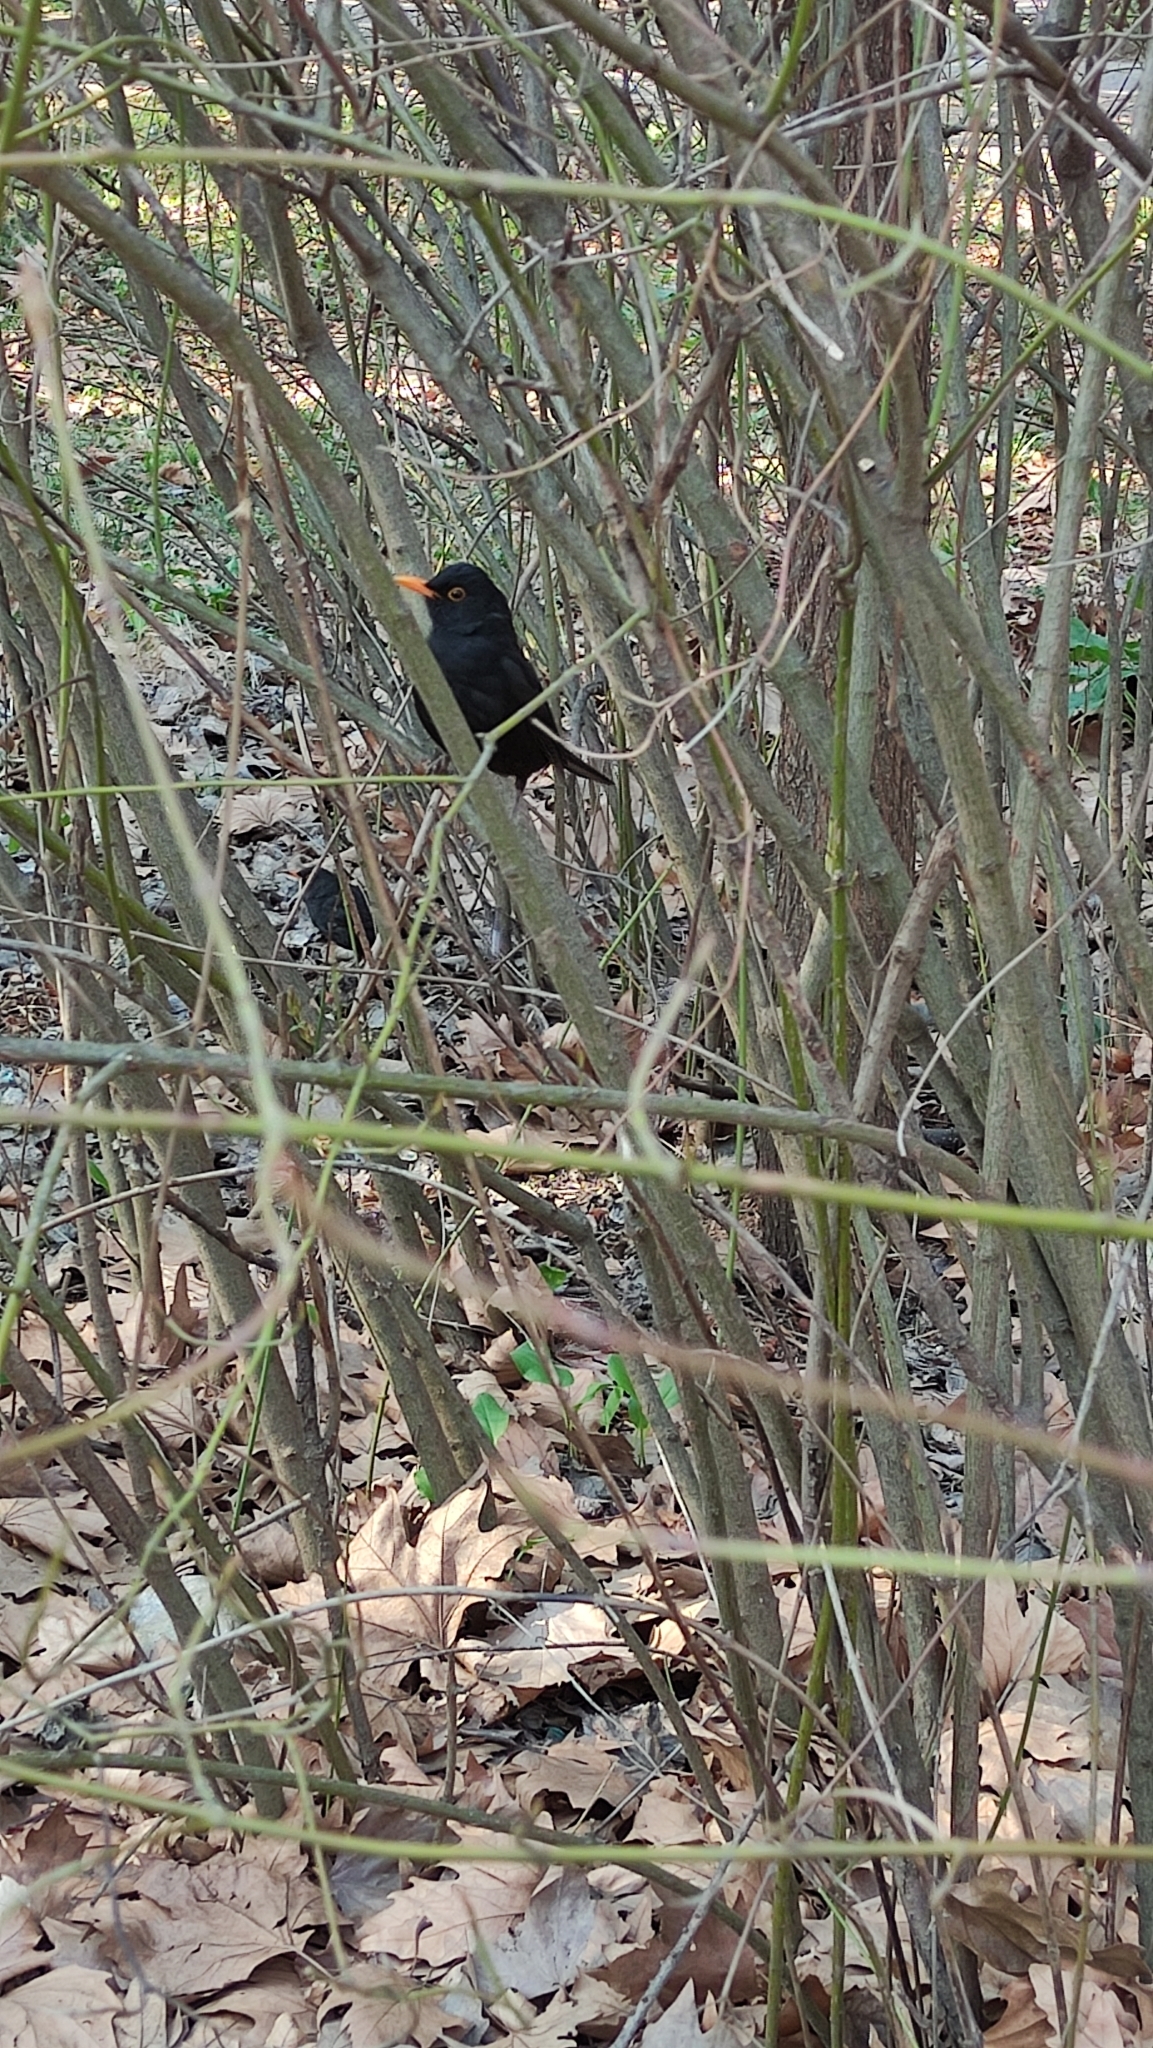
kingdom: Animalia
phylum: Chordata
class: Aves
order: Passeriformes
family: Turdidae
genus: Turdus
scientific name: Turdus merula
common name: Common blackbird
